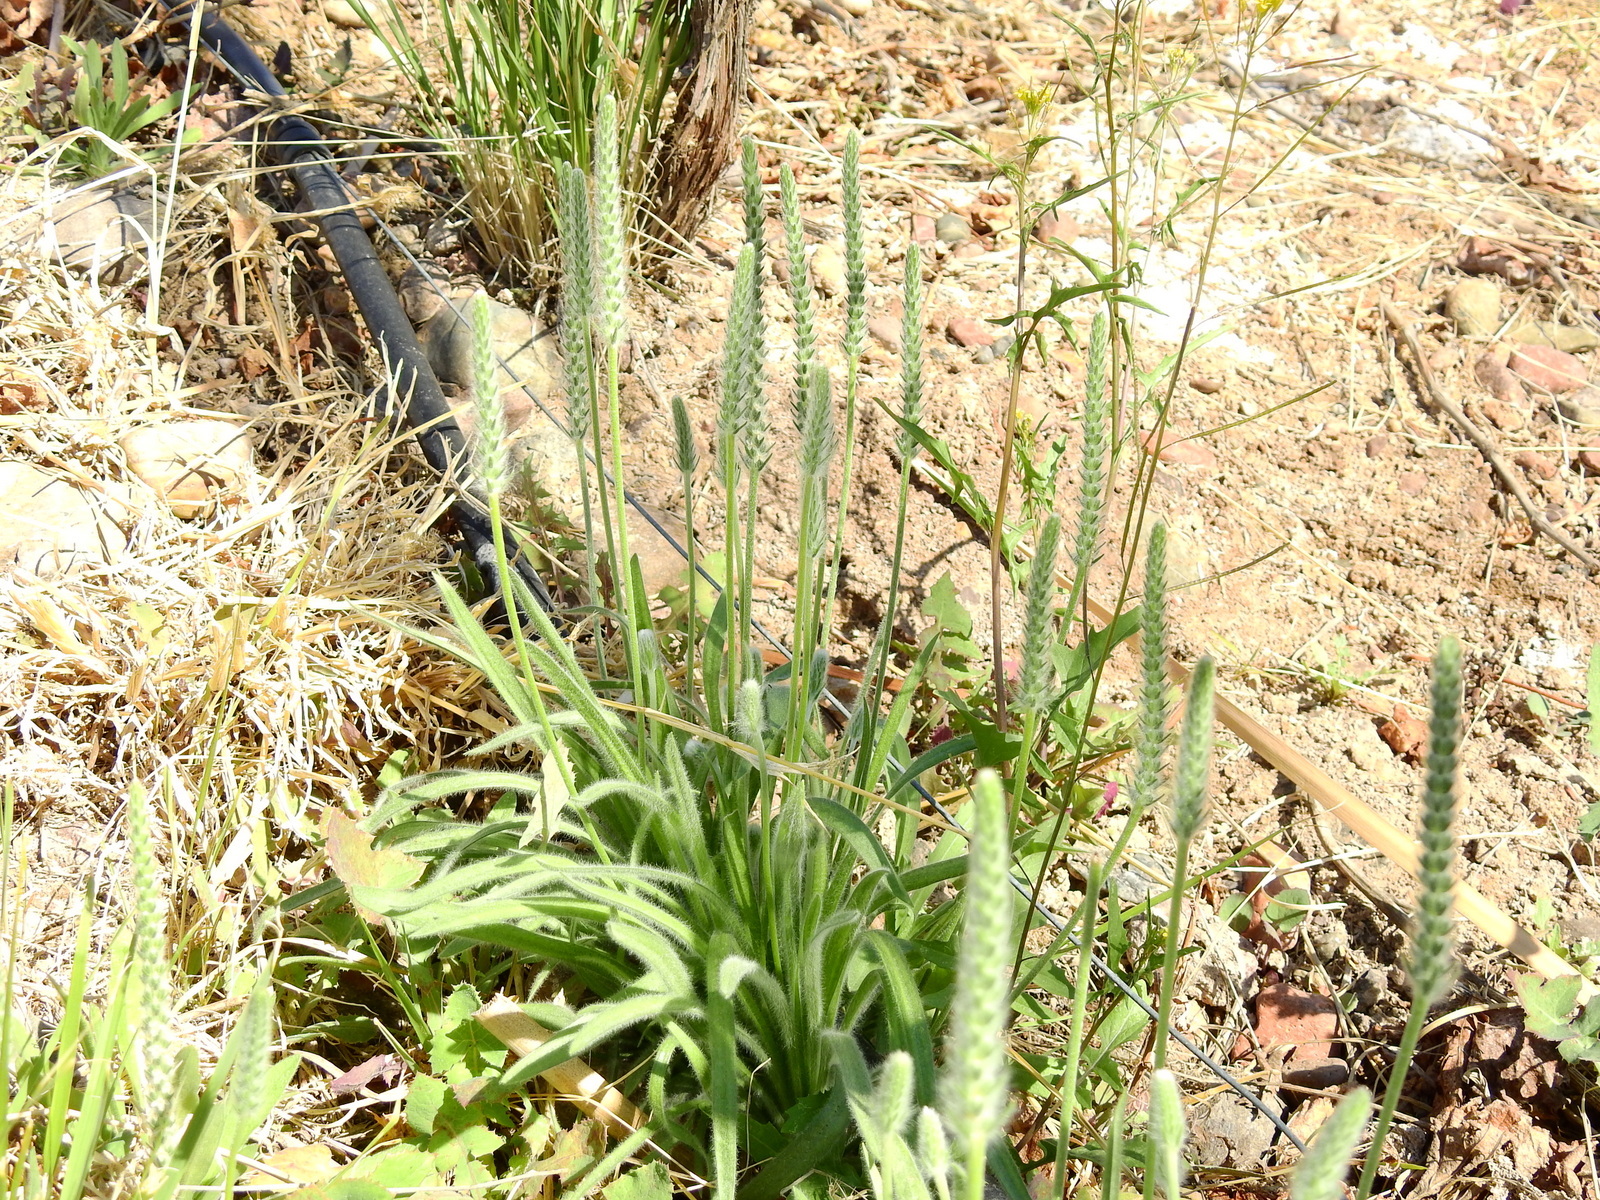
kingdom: Plantae
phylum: Tracheophyta
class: Magnoliopsida
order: Lamiales
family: Plantaginaceae
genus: Plantago
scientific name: Plantago patagonica
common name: Patagonia indian-wheat
